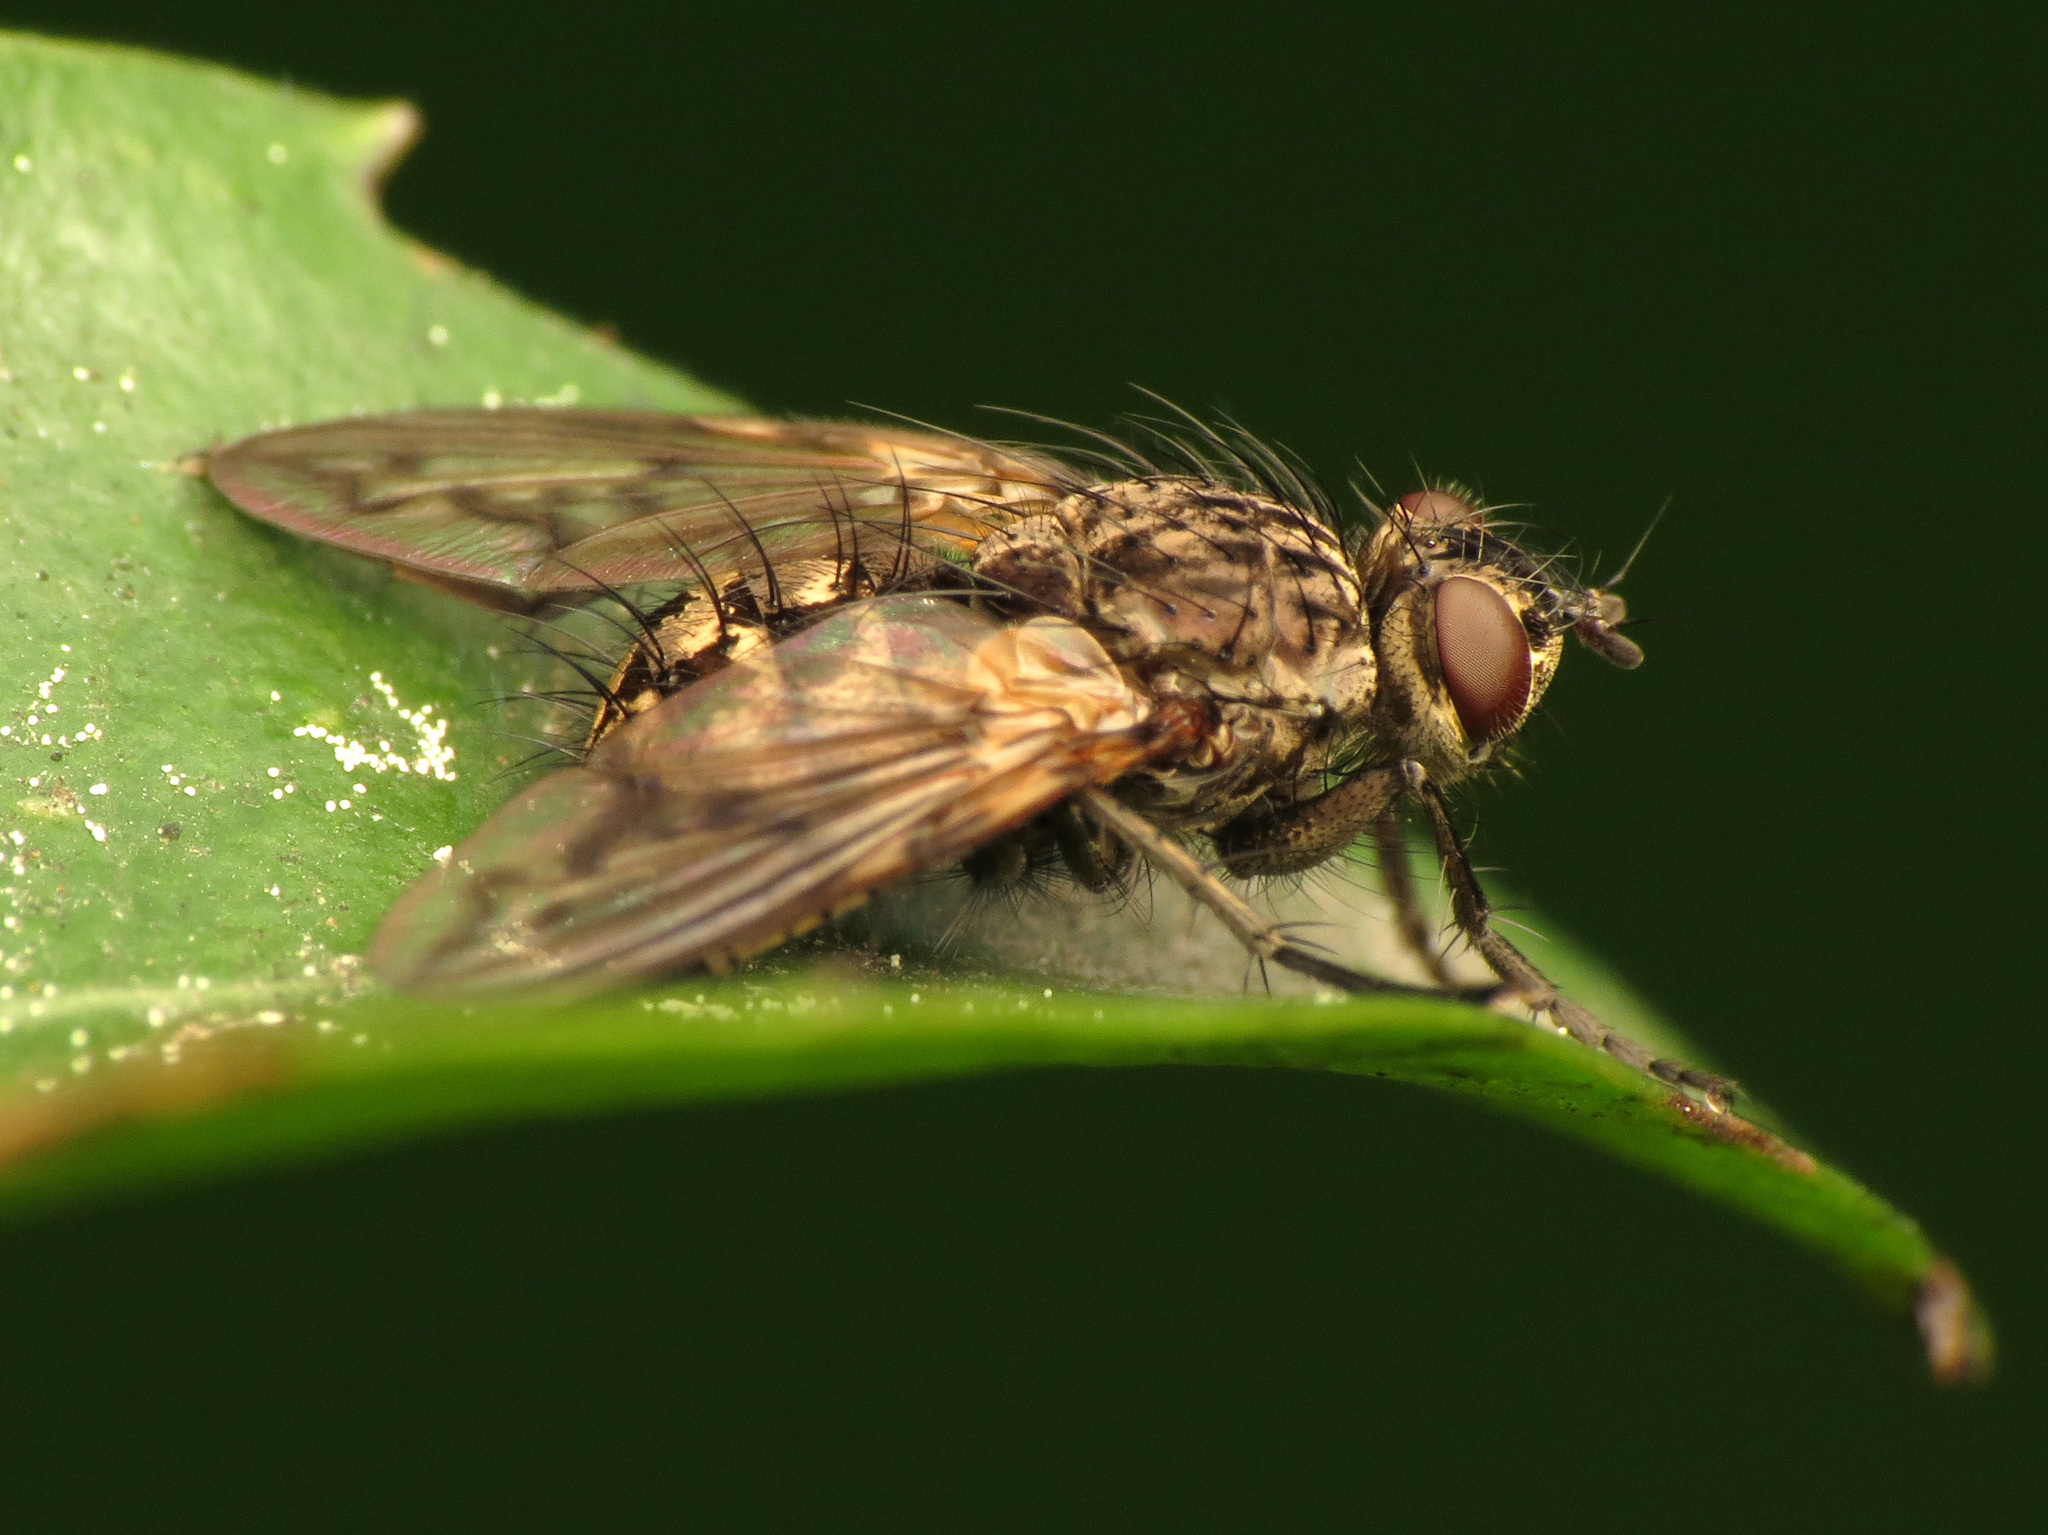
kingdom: Animalia
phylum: Arthropoda
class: Insecta
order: Diptera
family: Tachinidae
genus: Mallochomacquartia
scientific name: Mallochomacquartia vexata
